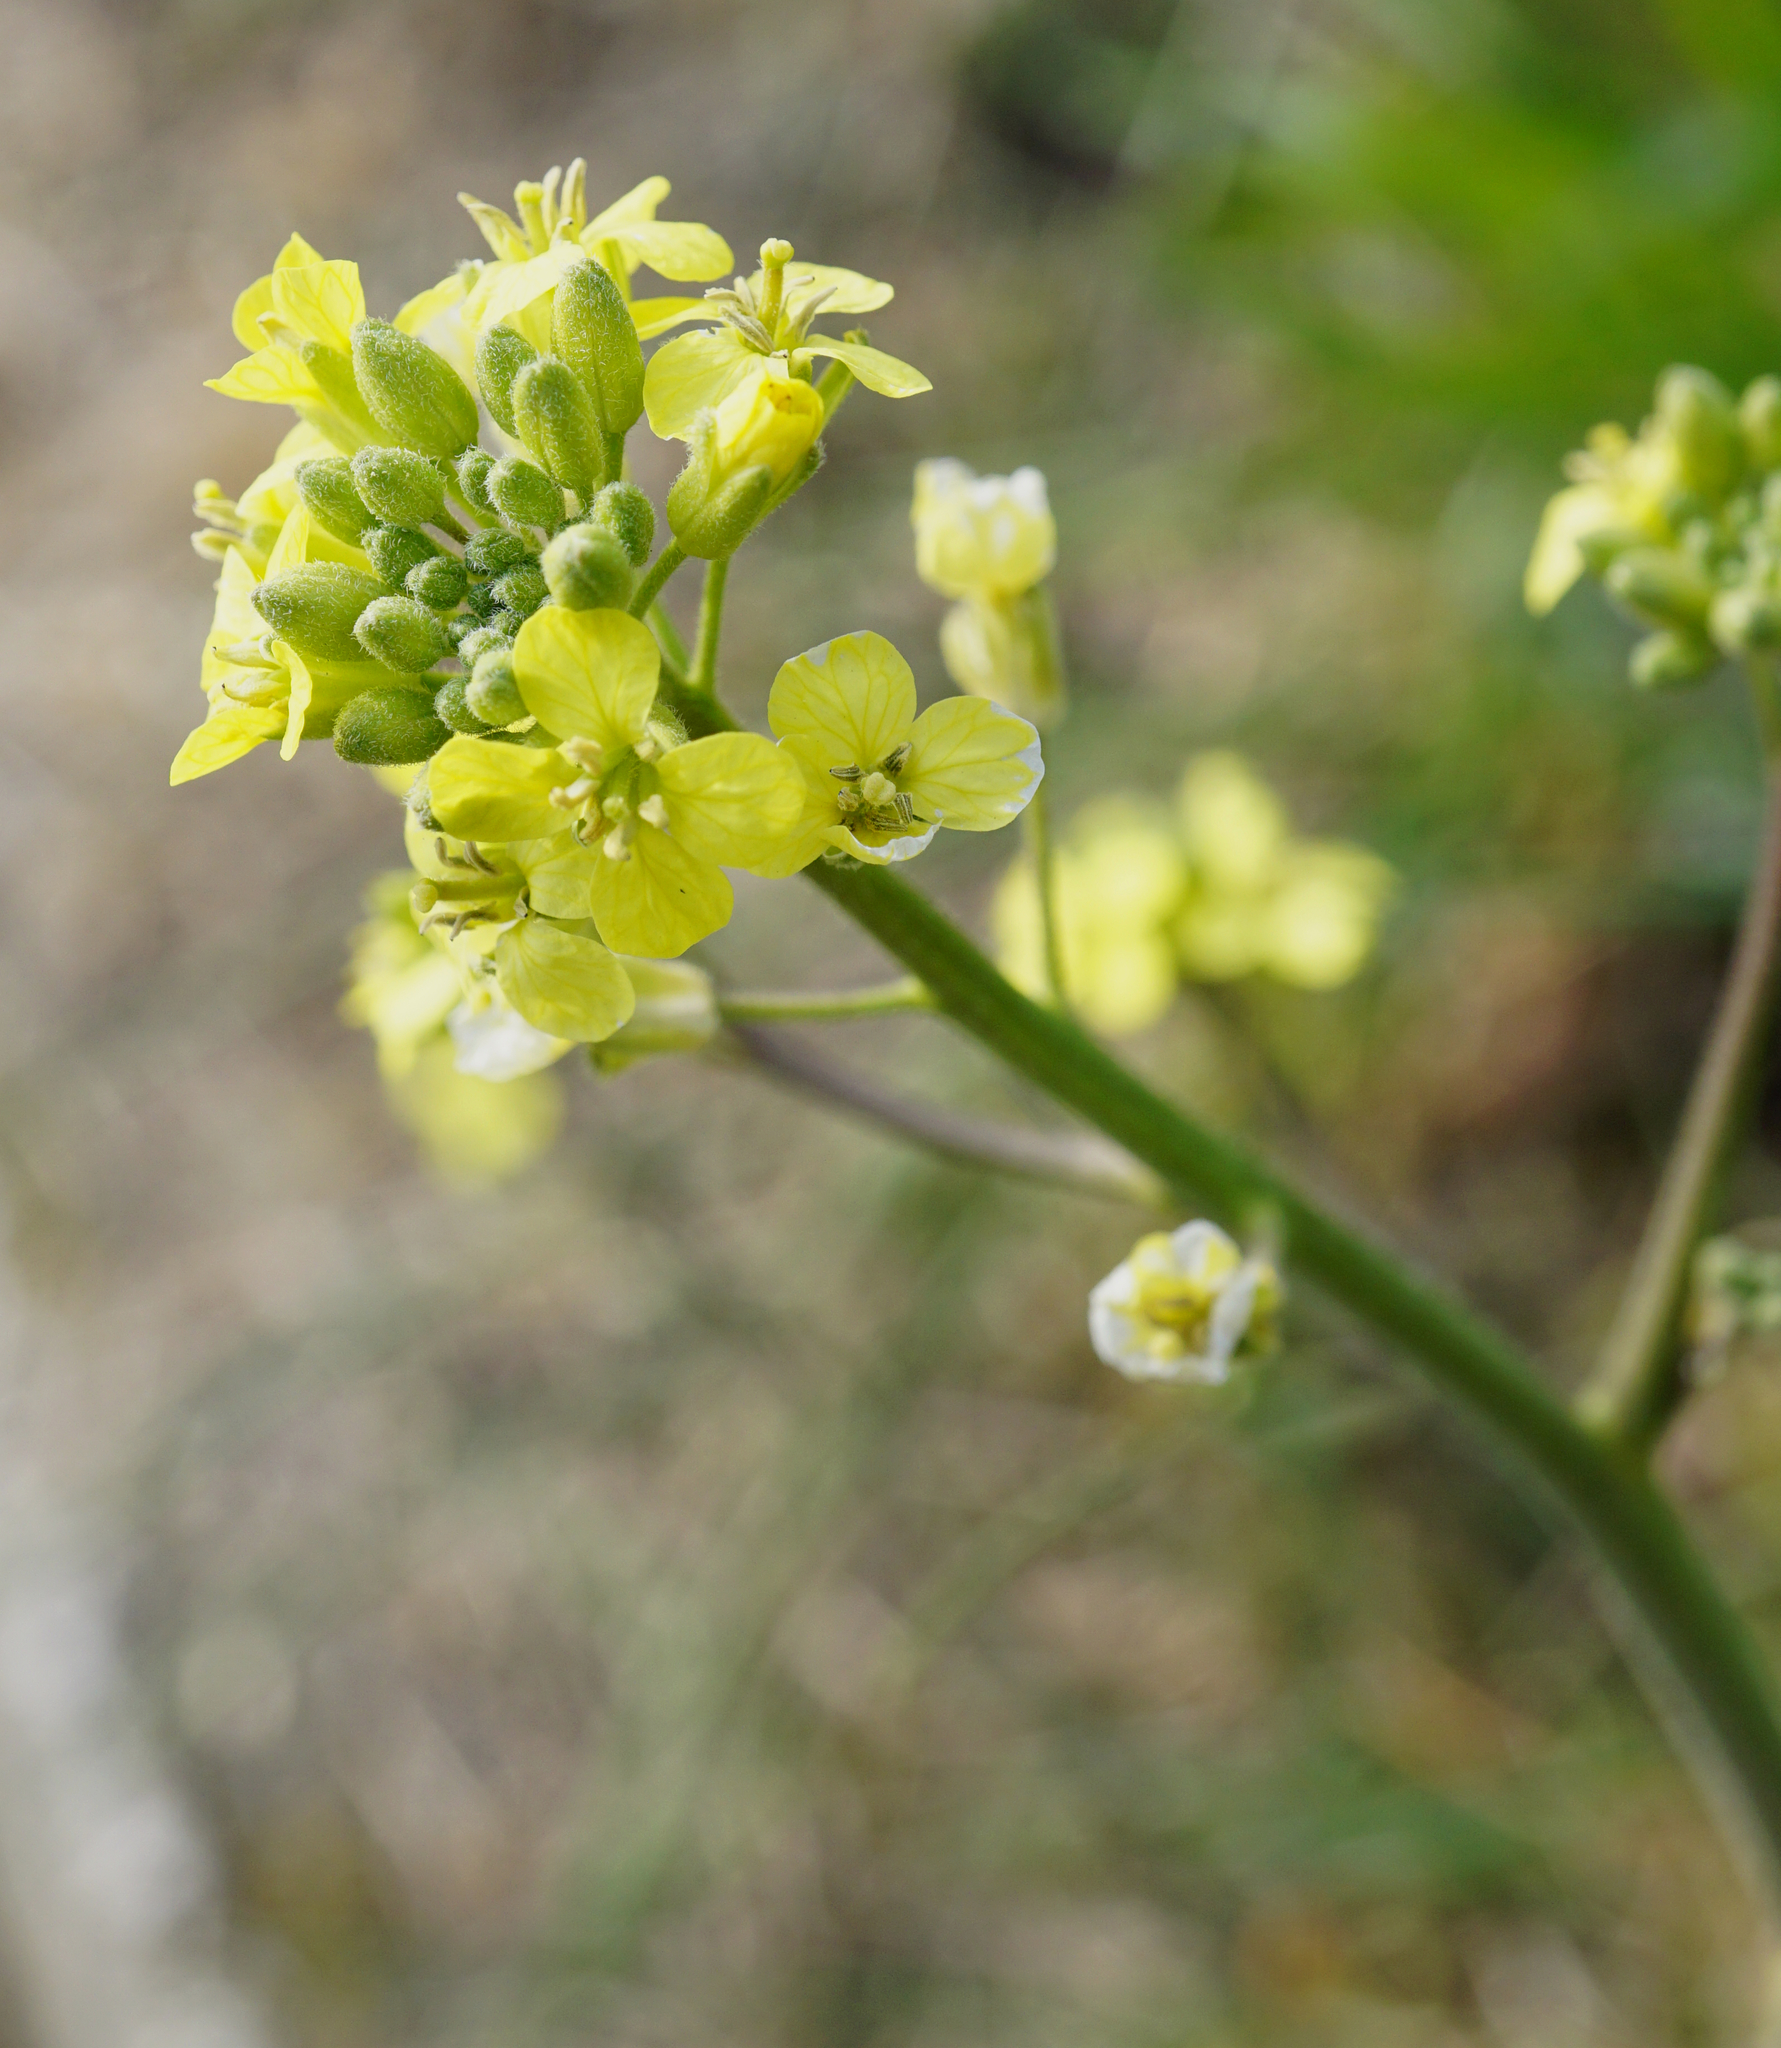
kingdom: Plantae
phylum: Tracheophyta
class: Magnoliopsida
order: Brassicales
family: Brassicaceae
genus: Sisymbrium
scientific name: Sisymbrium orientale
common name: Eastern rocket
